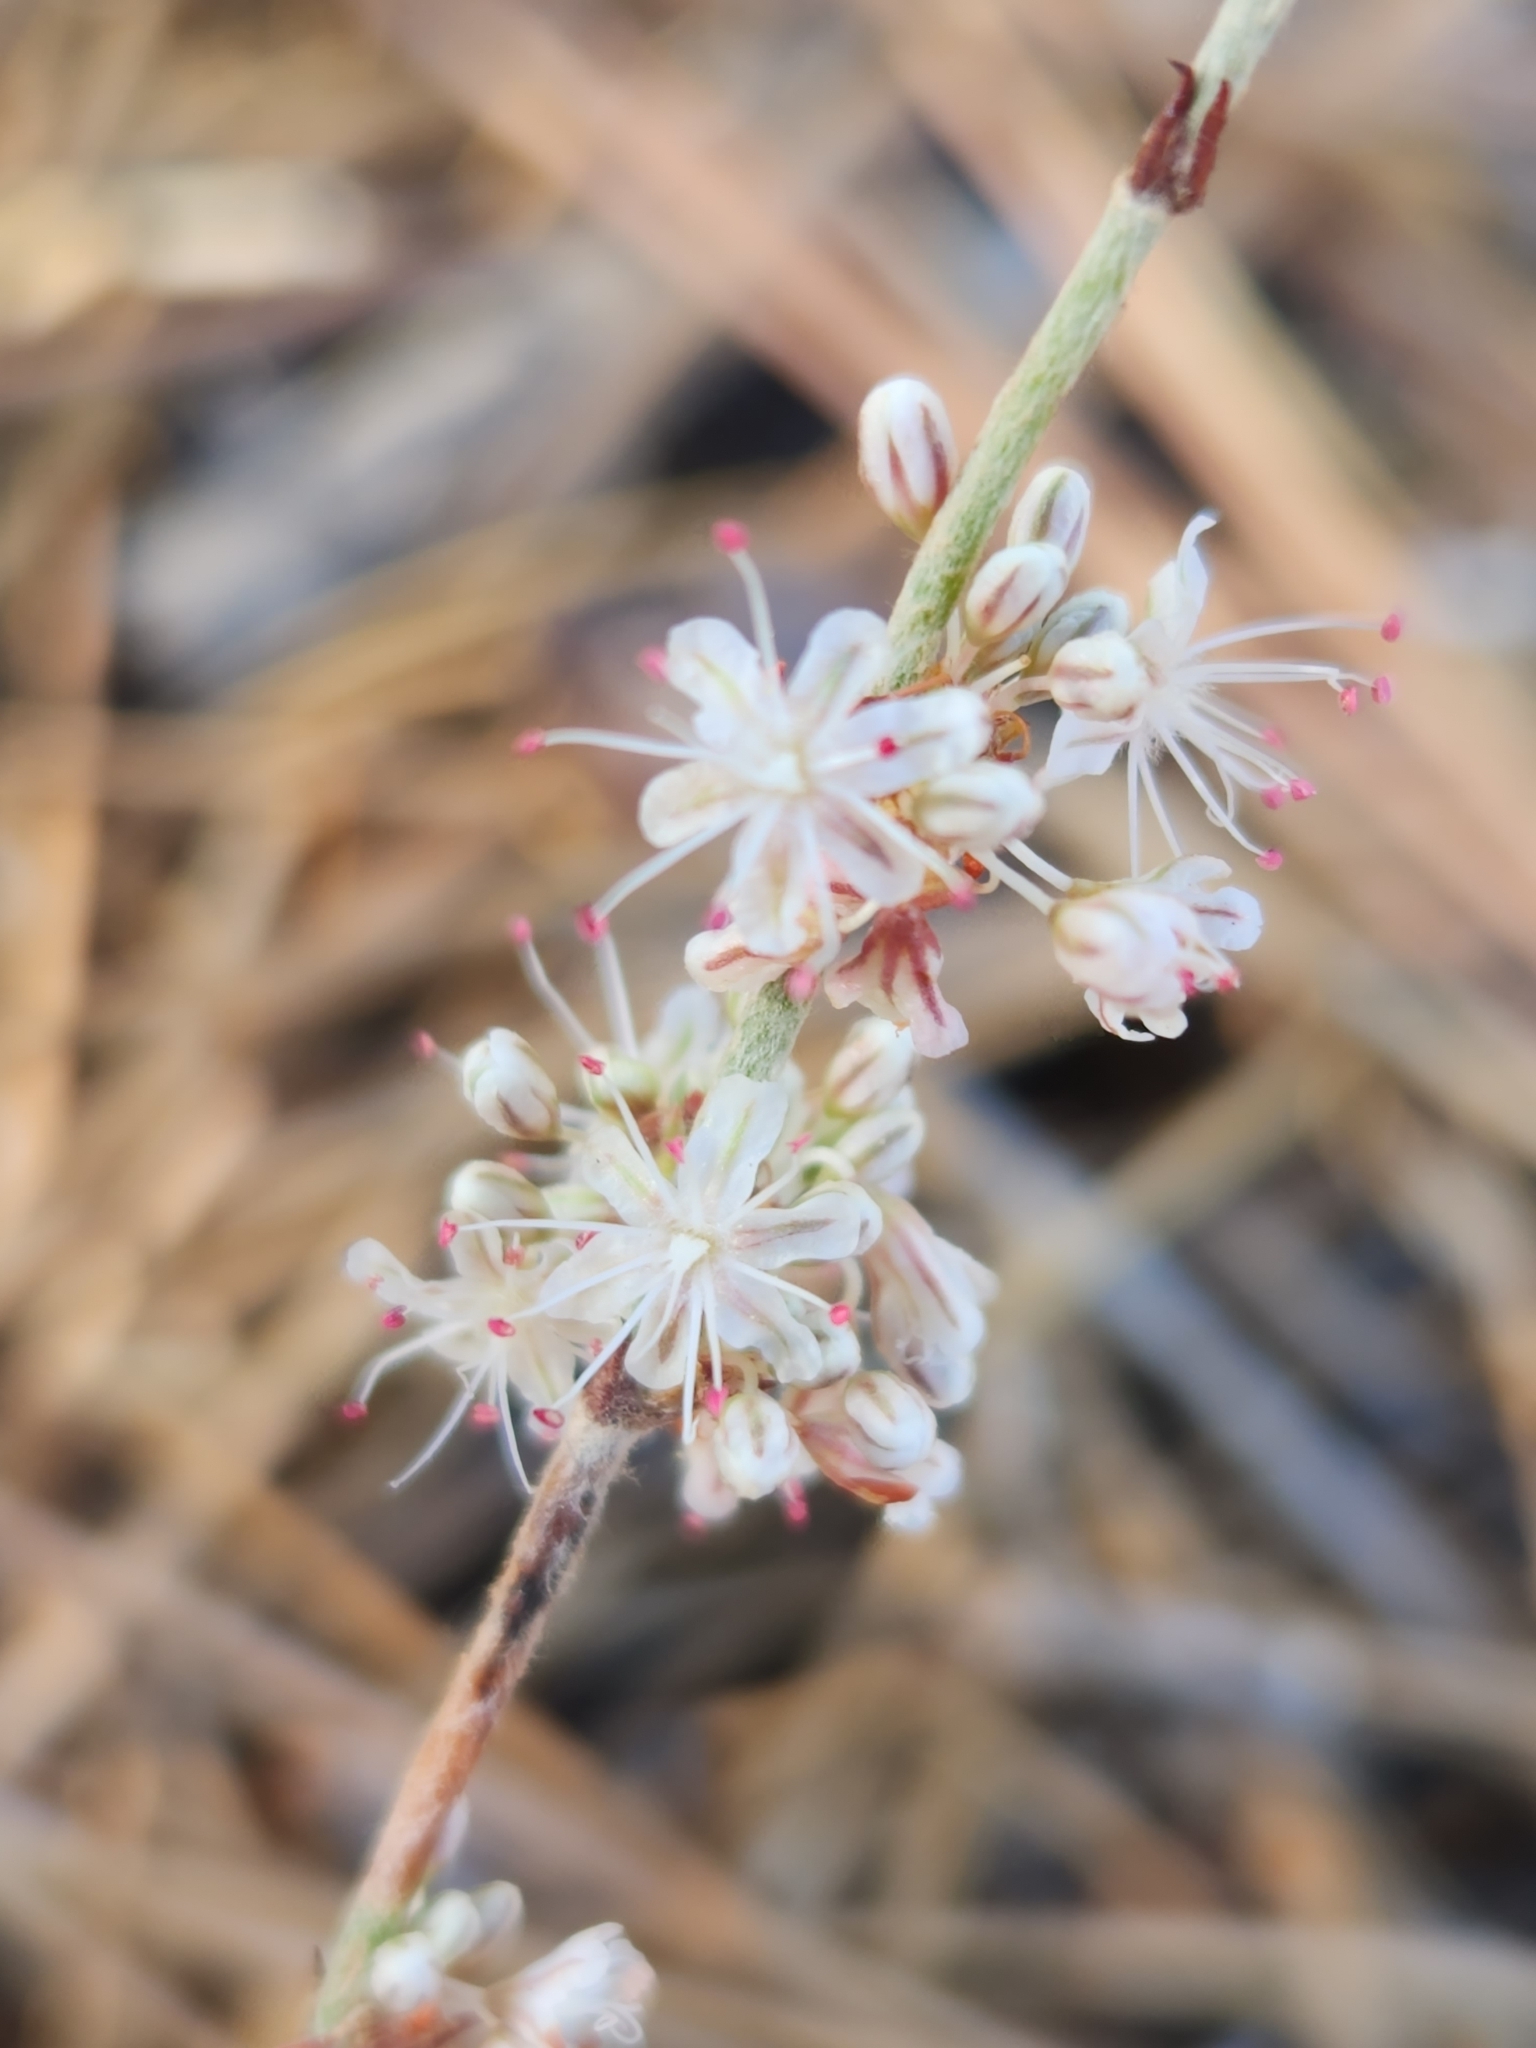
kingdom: Plantae
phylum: Tracheophyta
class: Magnoliopsida
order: Caryophyllales
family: Polygonaceae
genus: Eriogonum
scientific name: Eriogonum wrightii
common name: Bastard-sage
